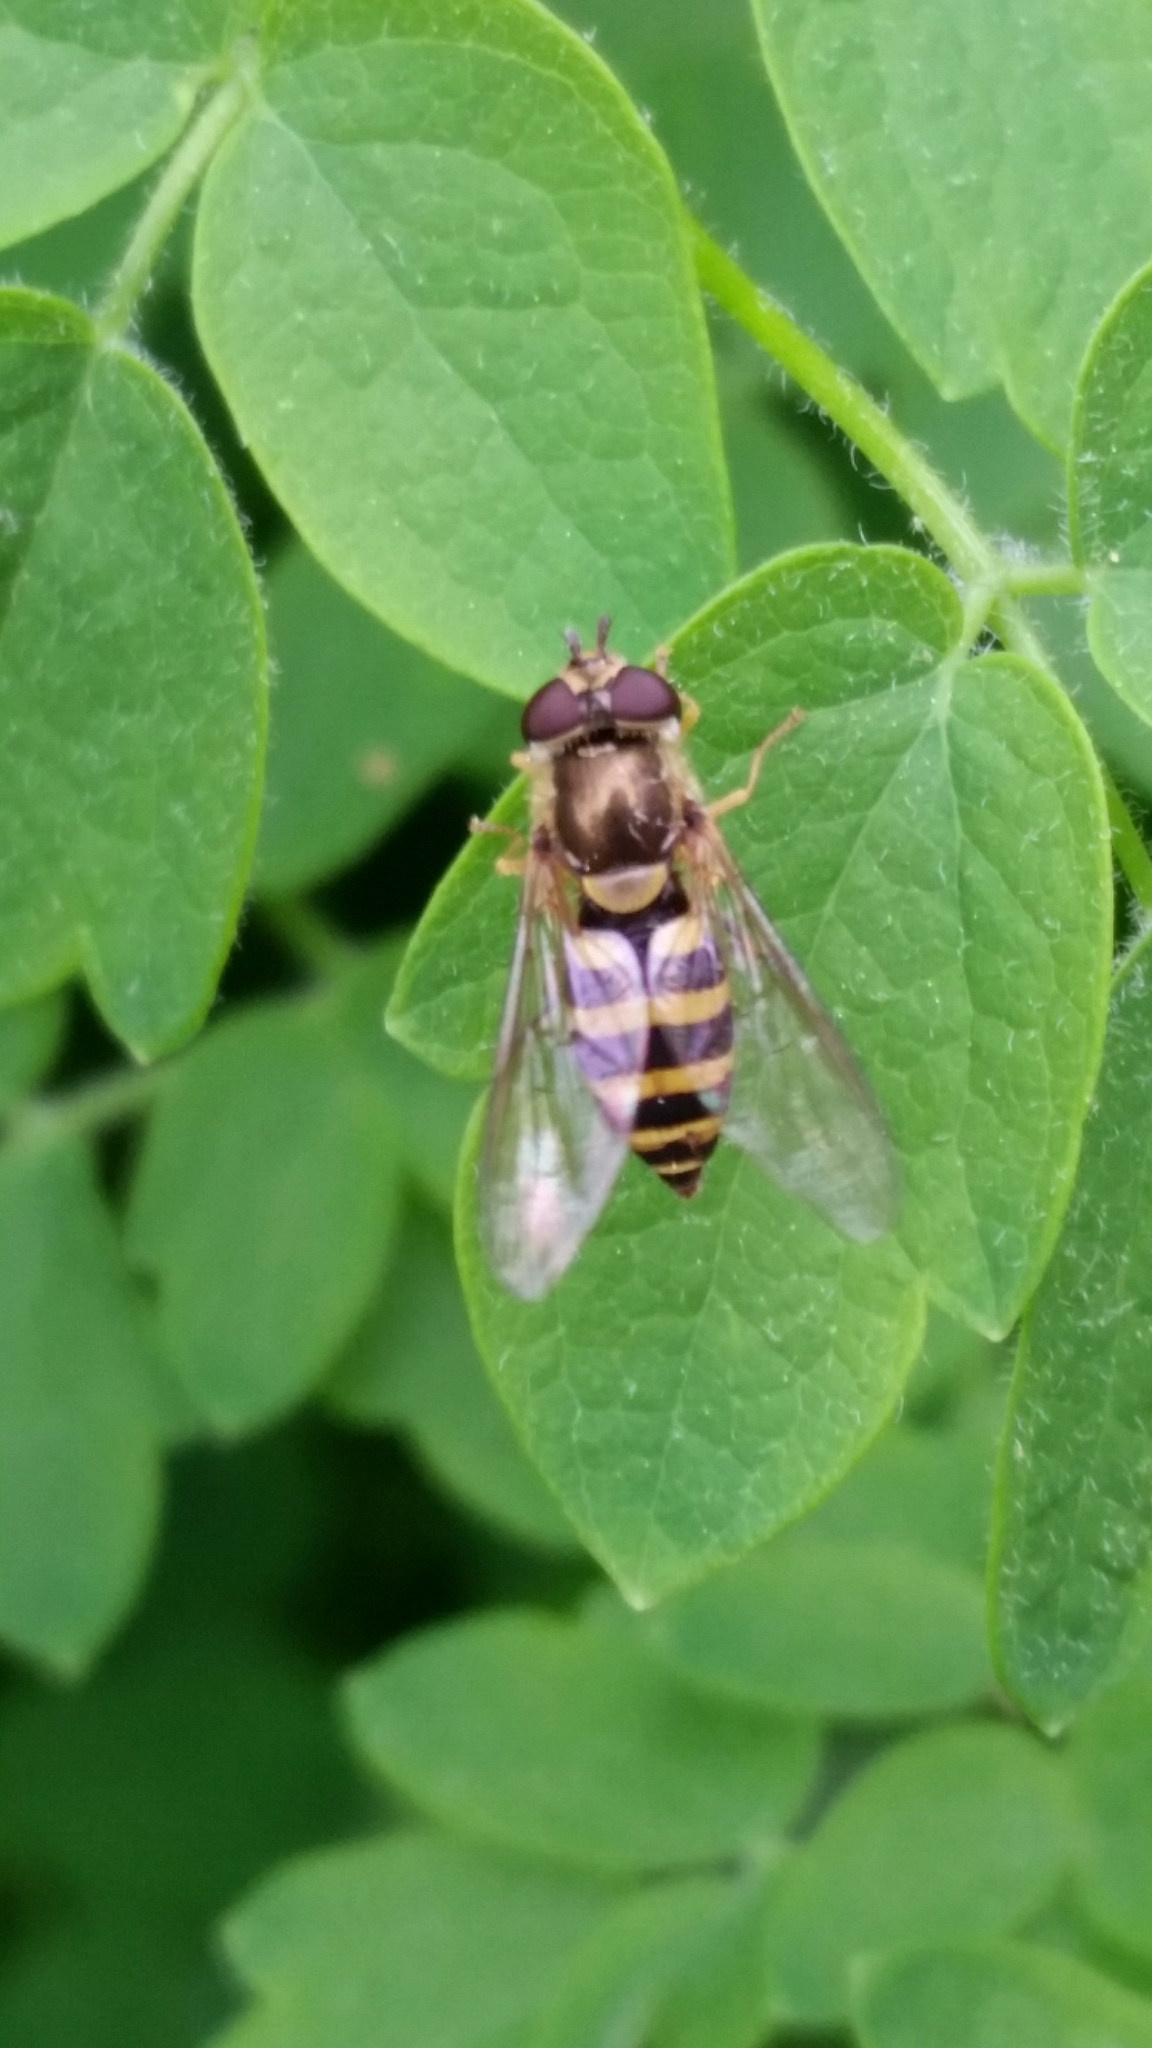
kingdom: Animalia
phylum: Arthropoda
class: Insecta
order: Diptera
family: Syrphidae
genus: Syrphus
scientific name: Syrphus
